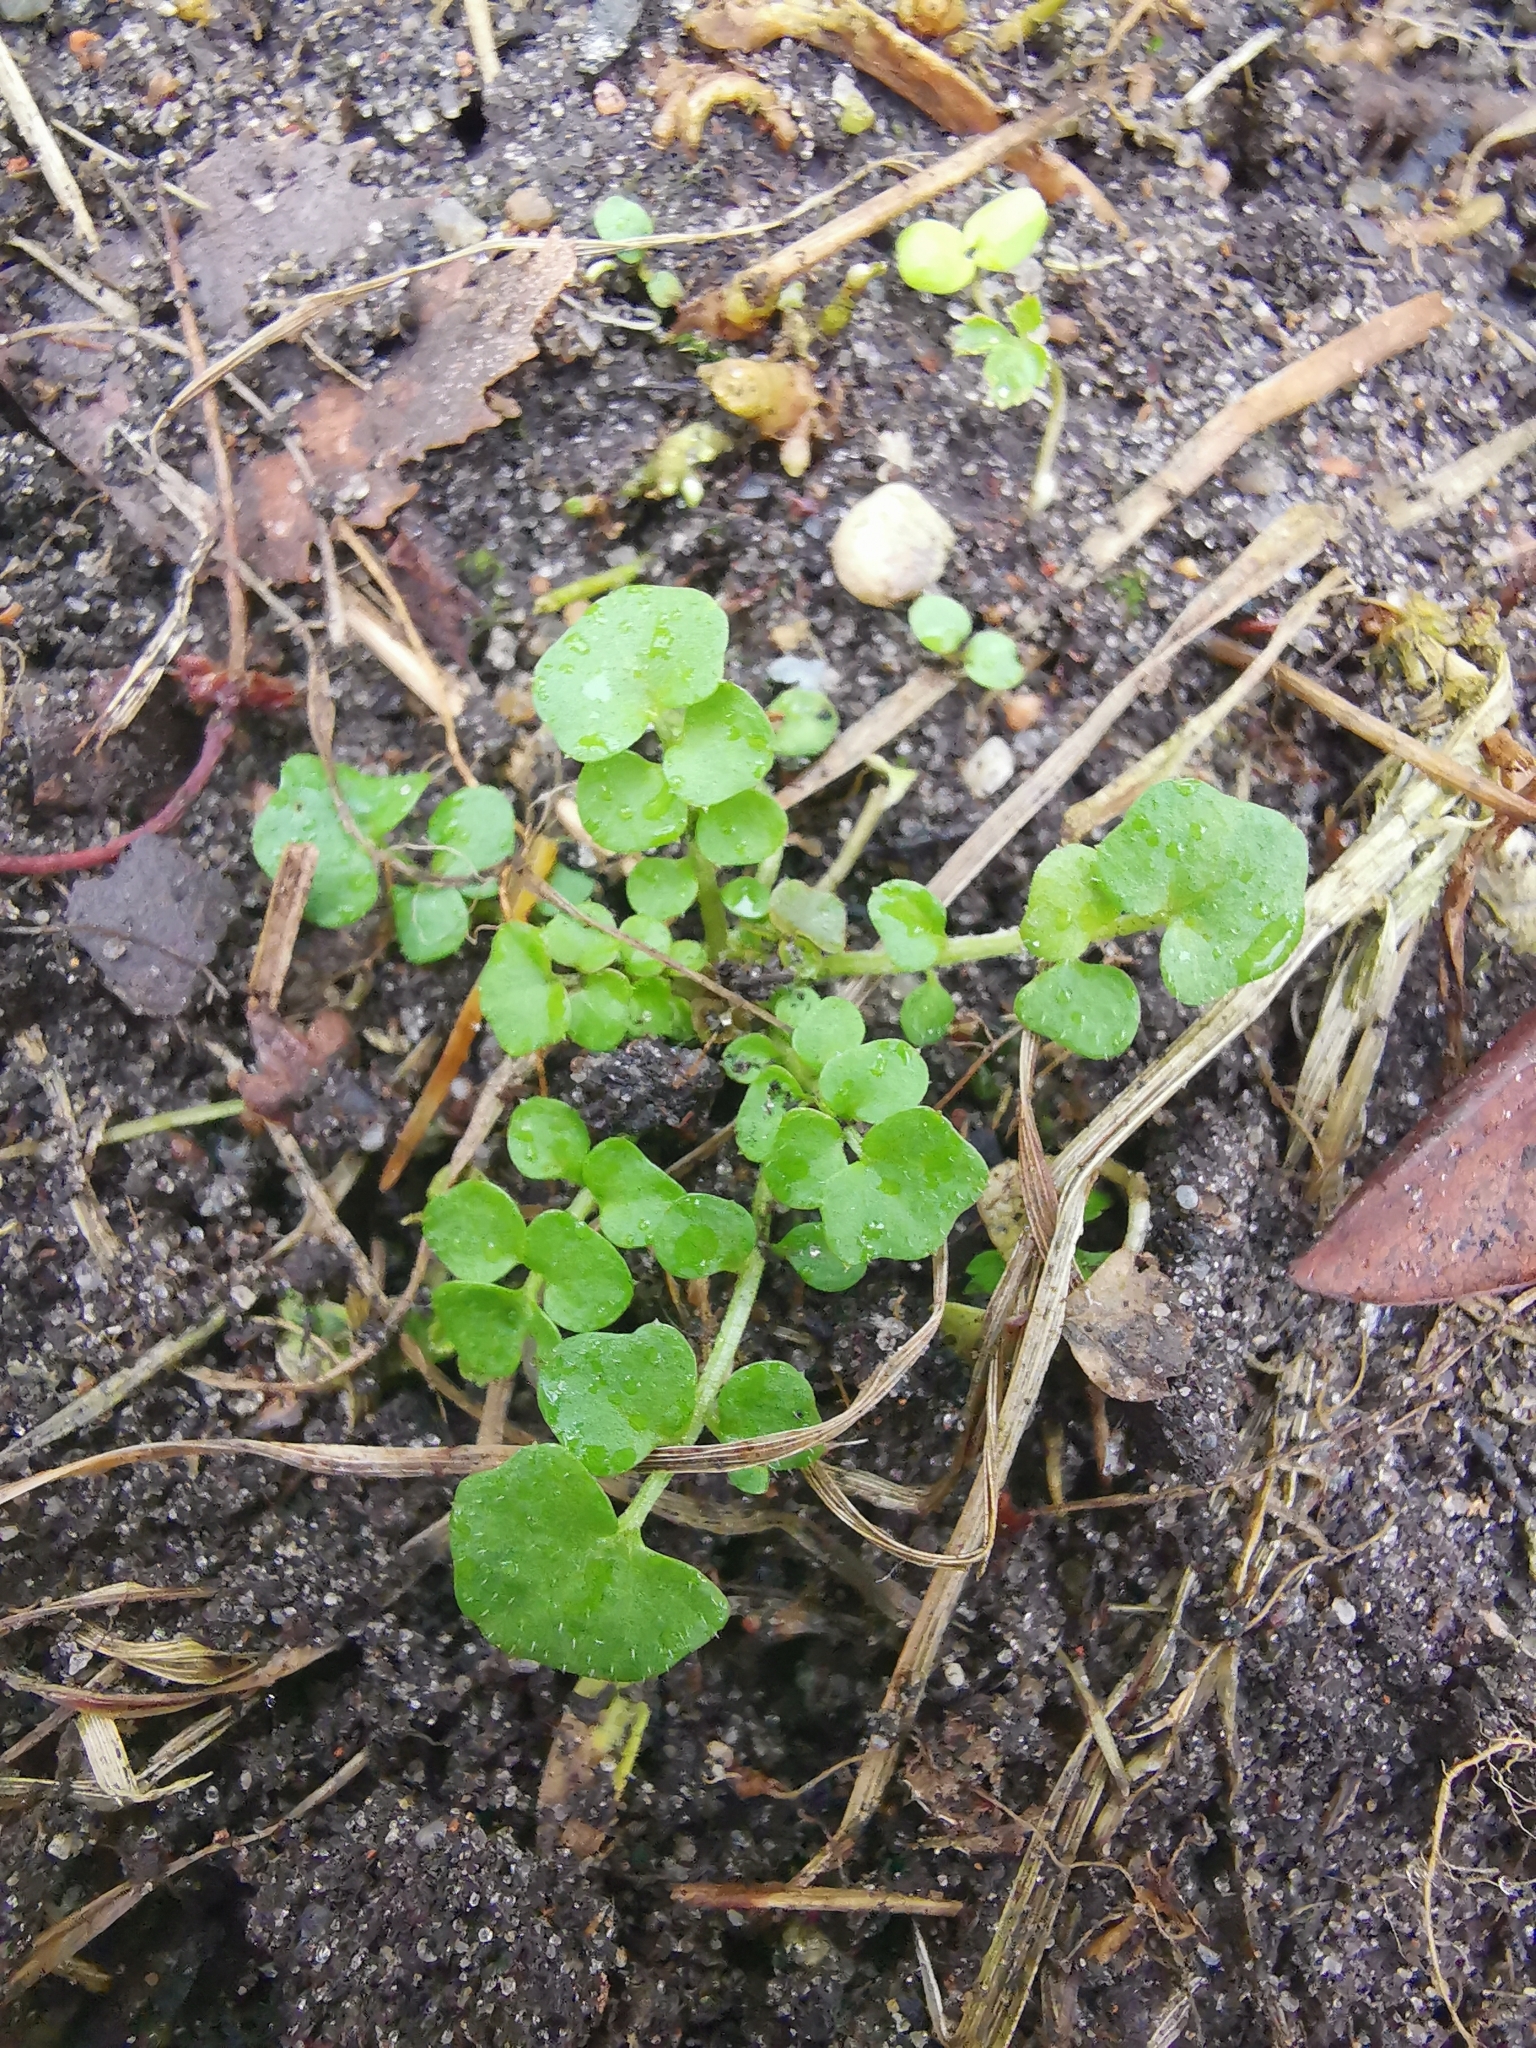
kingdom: Plantae
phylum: Tracheophyta
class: Magnoliopsida
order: Brassicales
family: Brassicaceae
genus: Cardamine
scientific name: Cardamine hirsuta
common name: Hairy bittercress
